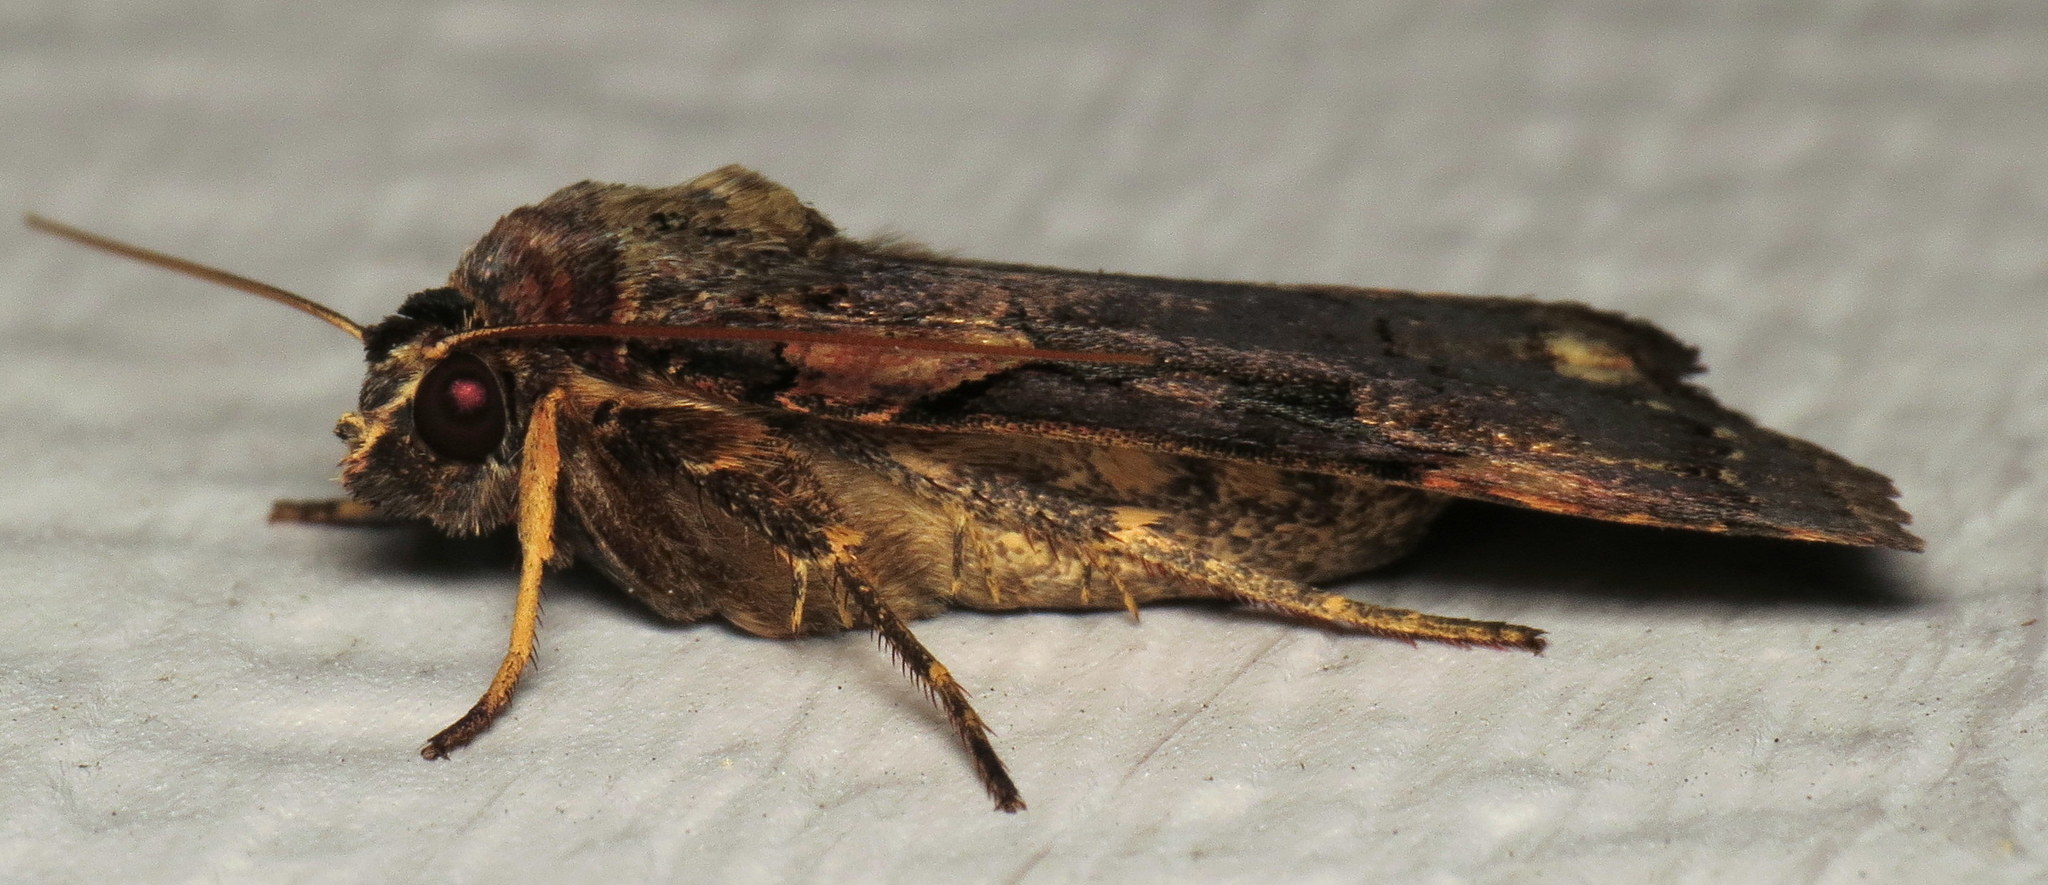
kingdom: Animalia
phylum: Arthropoda
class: Insecta
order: Lepidoptera
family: Noctuidae
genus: Pseudohermonassa
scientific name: Pseudohermonassa bicarnea
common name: Pink spotted dart
